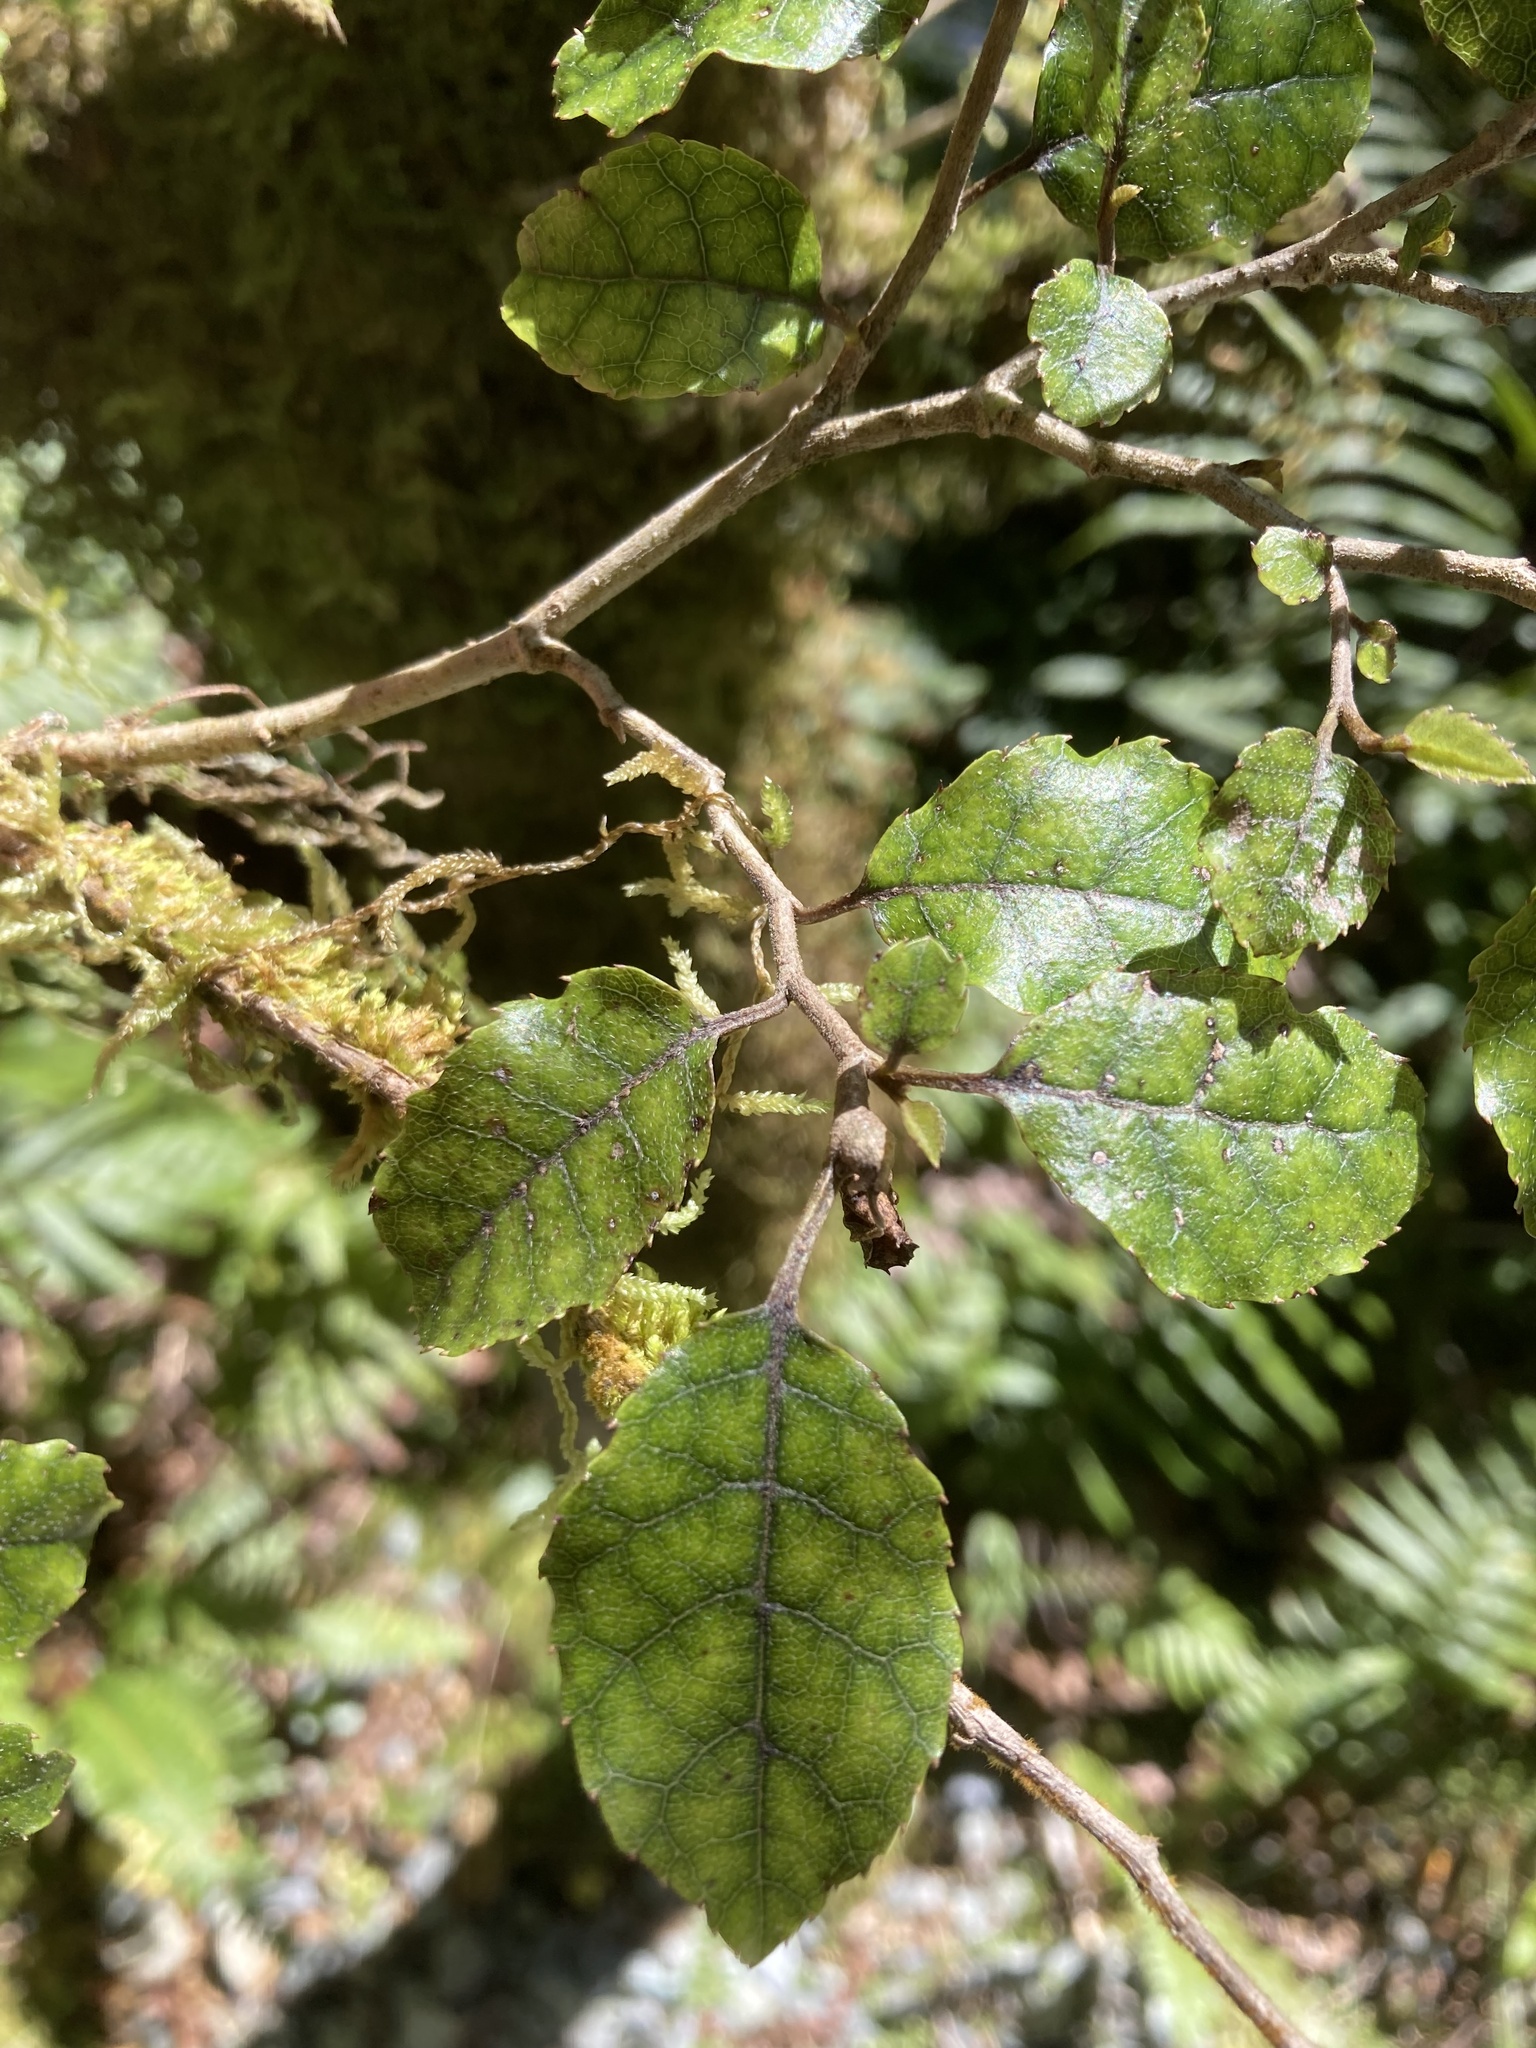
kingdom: Plantae
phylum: Tracheophyta
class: Magnoliopsida
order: Asterales
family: Rousseaceae
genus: Carpodetus
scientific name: Carpodetus serratus
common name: White mapau
